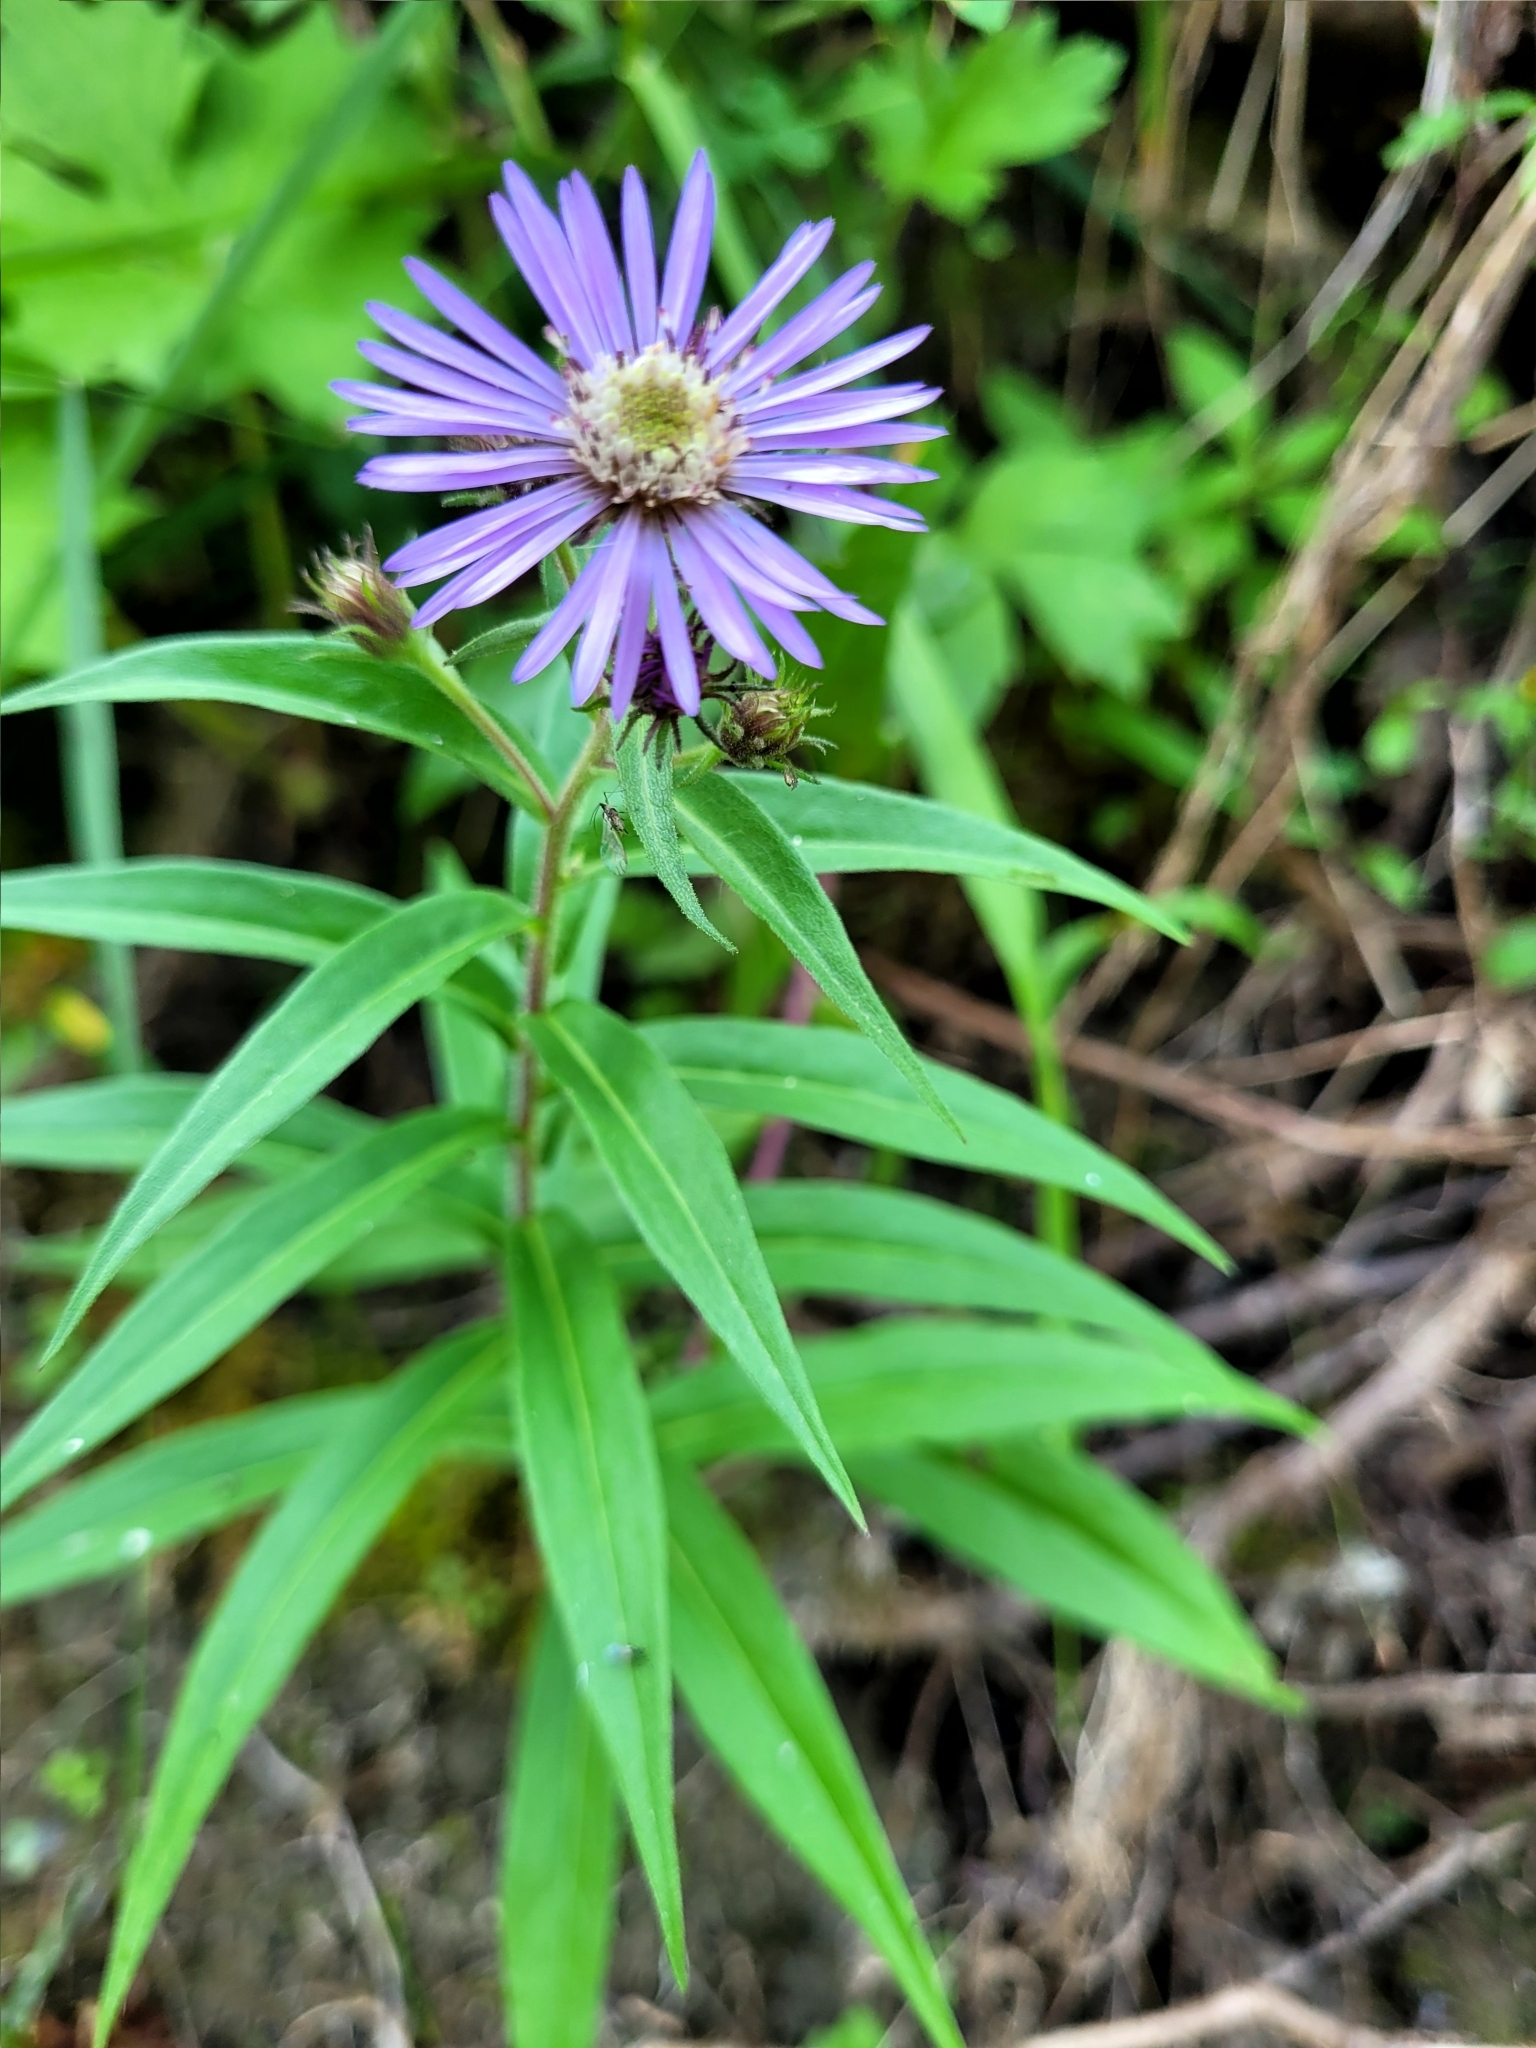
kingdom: Plantae
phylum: Tracheophyta
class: Magnoliopsida
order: Asterales
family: Asteraceae
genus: Canadanthus
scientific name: Canadanthus modestus
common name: Great northern aster
